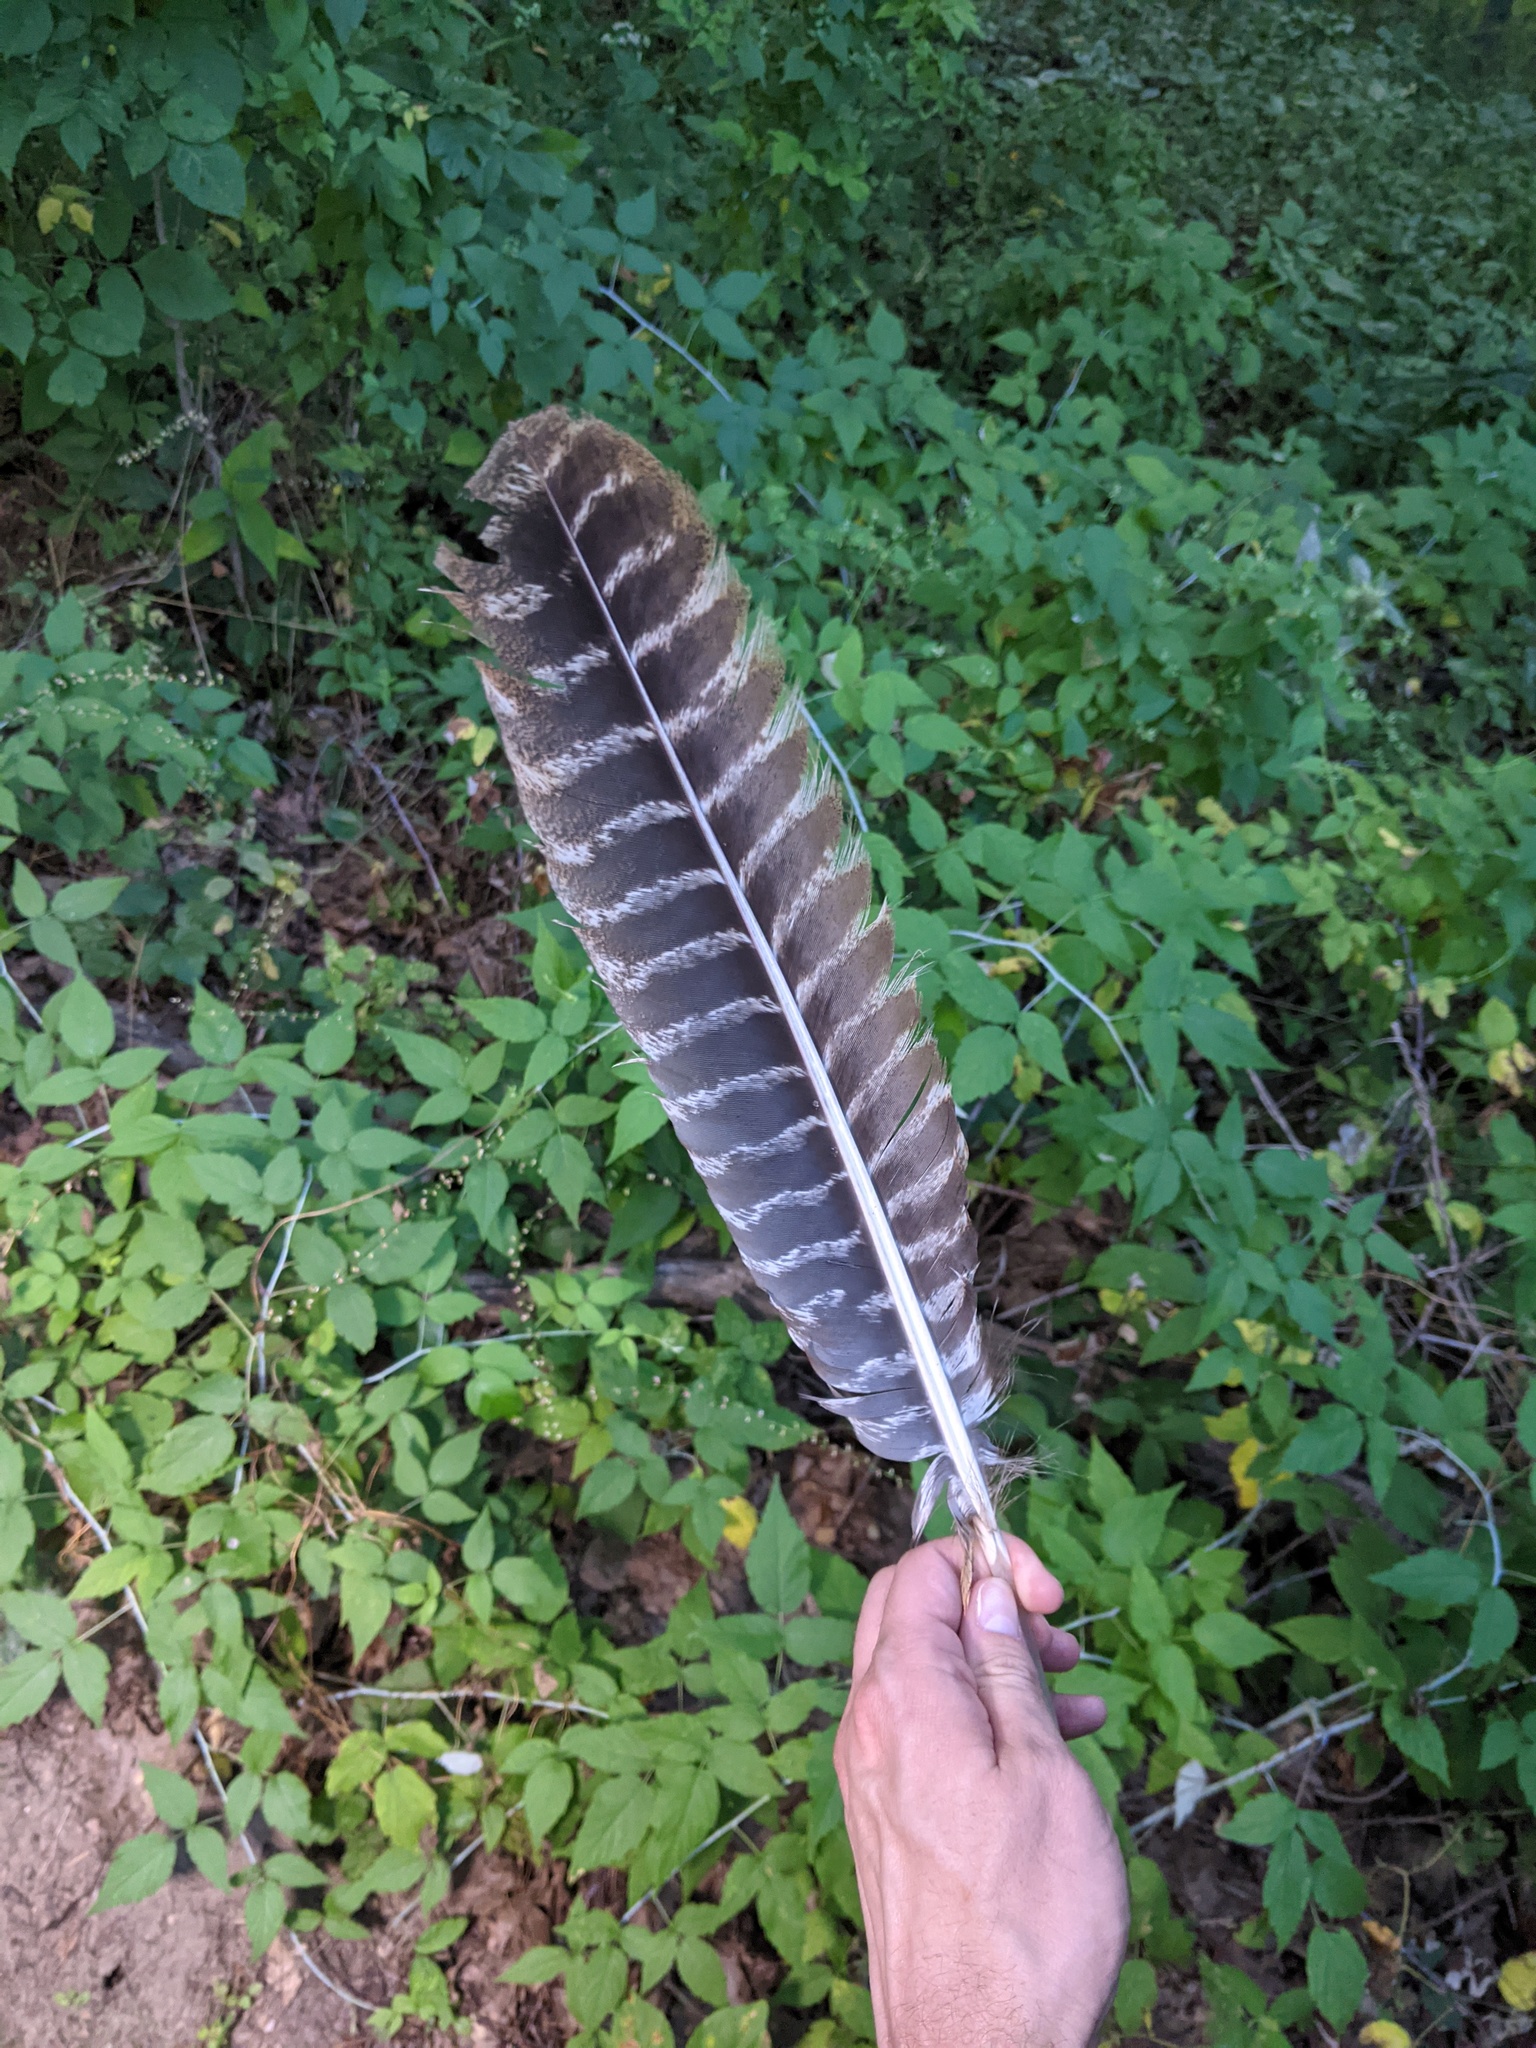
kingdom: Animalia
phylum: Chordata
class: Aves
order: Galliformes
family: Phasianidae
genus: Meleagris
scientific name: Meleagris gallopavo
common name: Wild turkey
